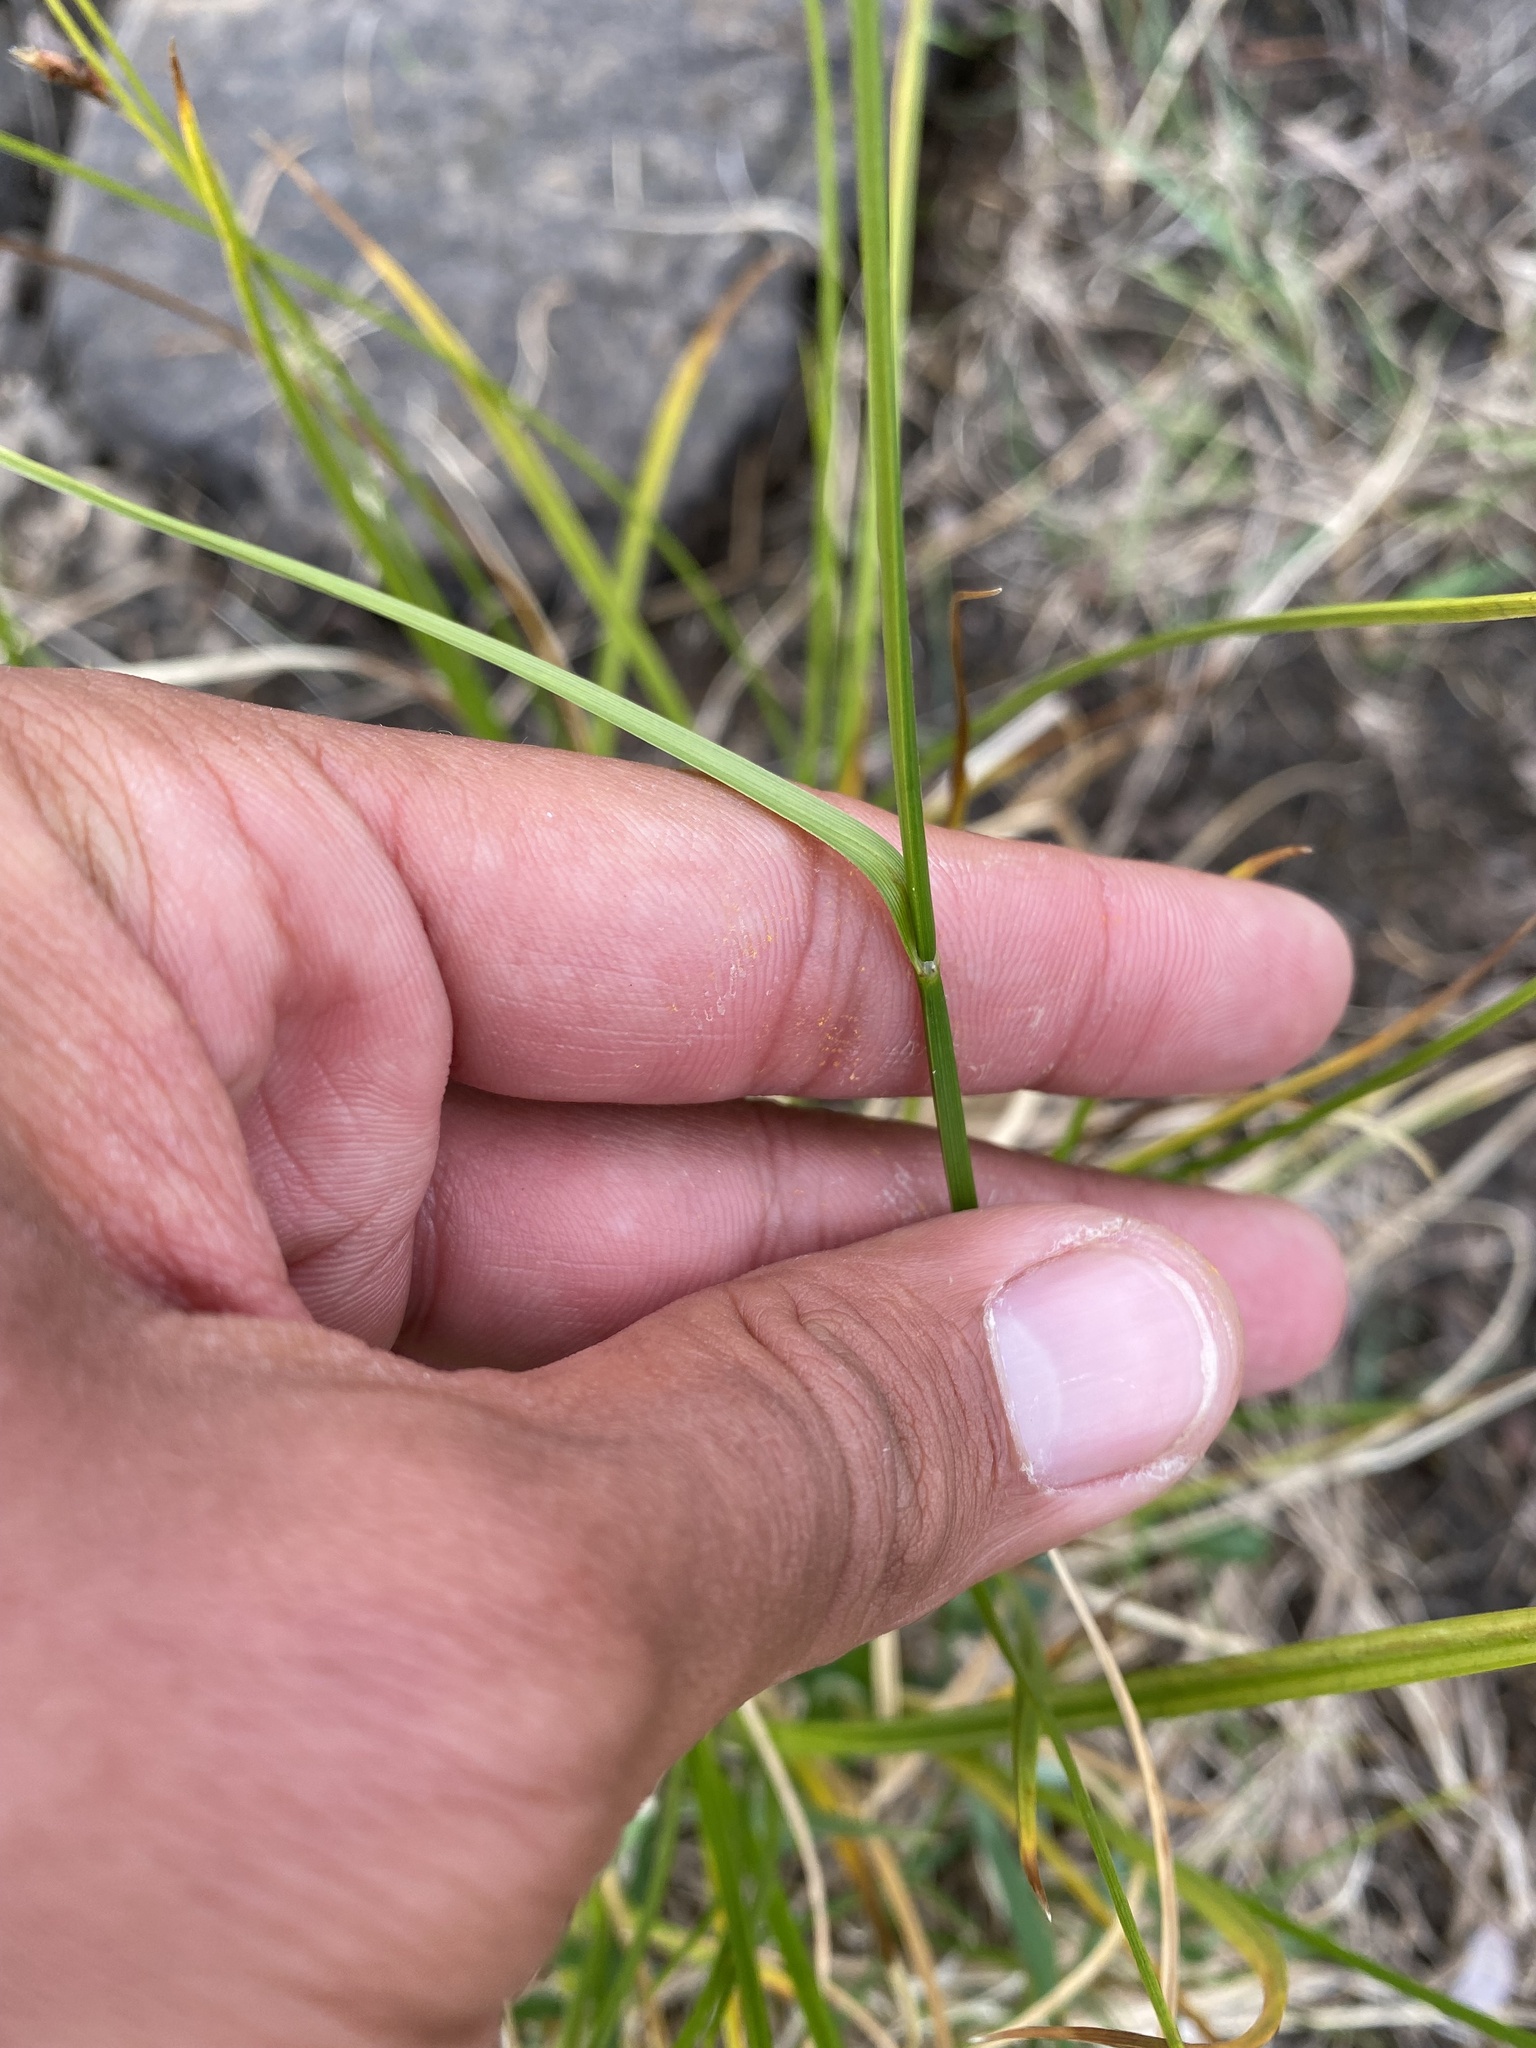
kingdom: Plantae
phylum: Tracheophyta
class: Liliopsida
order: Poales
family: Cyperaceae
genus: Carex
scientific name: Carex saxatilis
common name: Russet sedge
